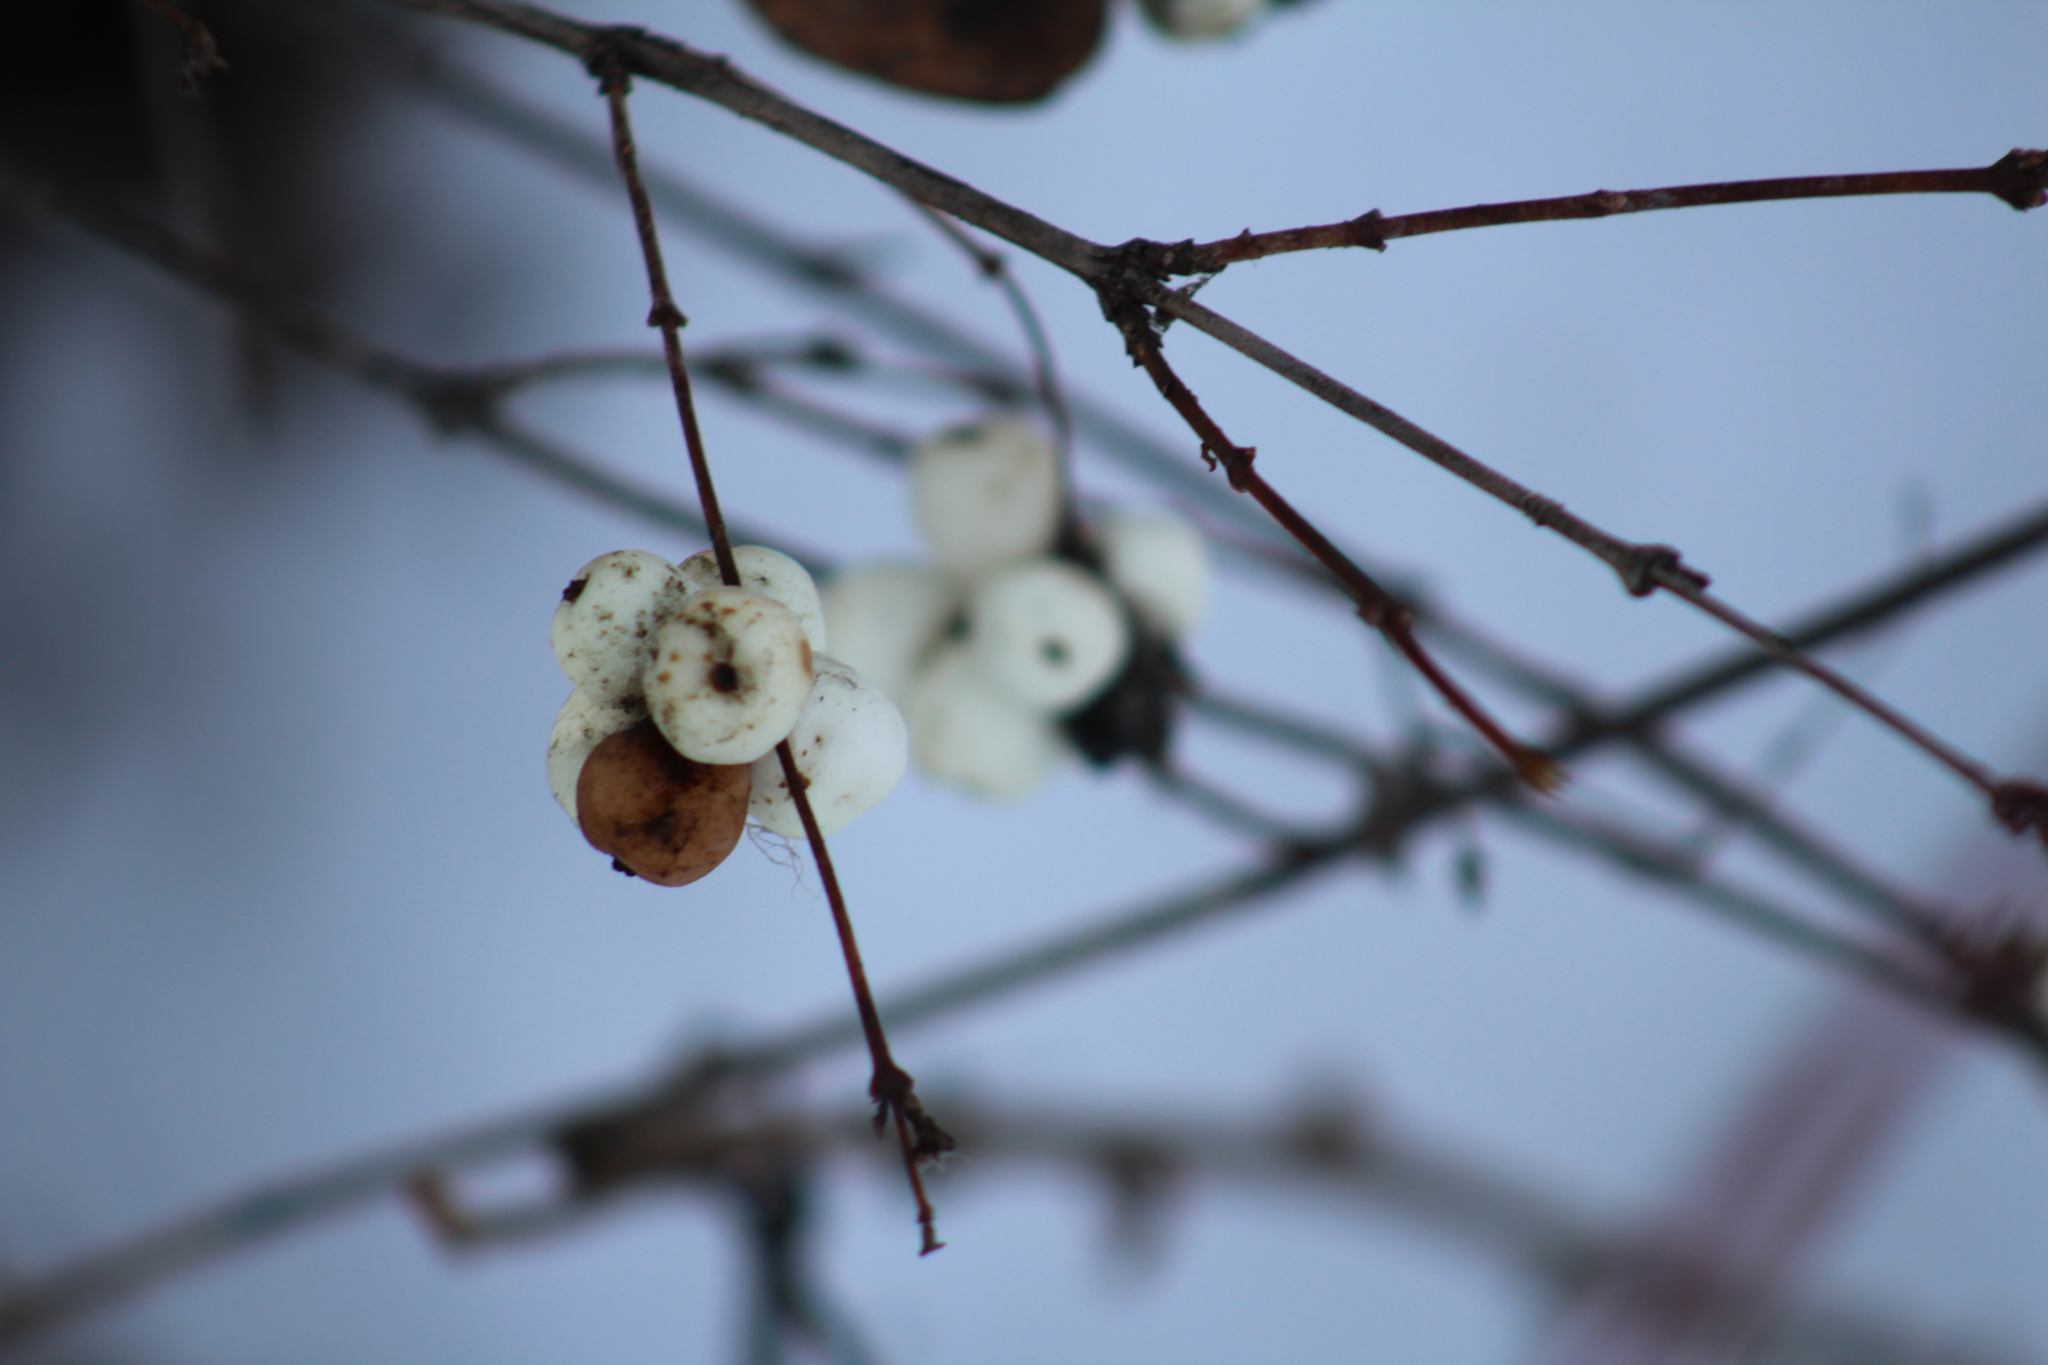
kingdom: Plantae
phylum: Tracheophyta
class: Magnoliopsida
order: Dipsacales
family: Caprifoliaceae
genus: Symphoricarpos
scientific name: Symphoricarpos albus
